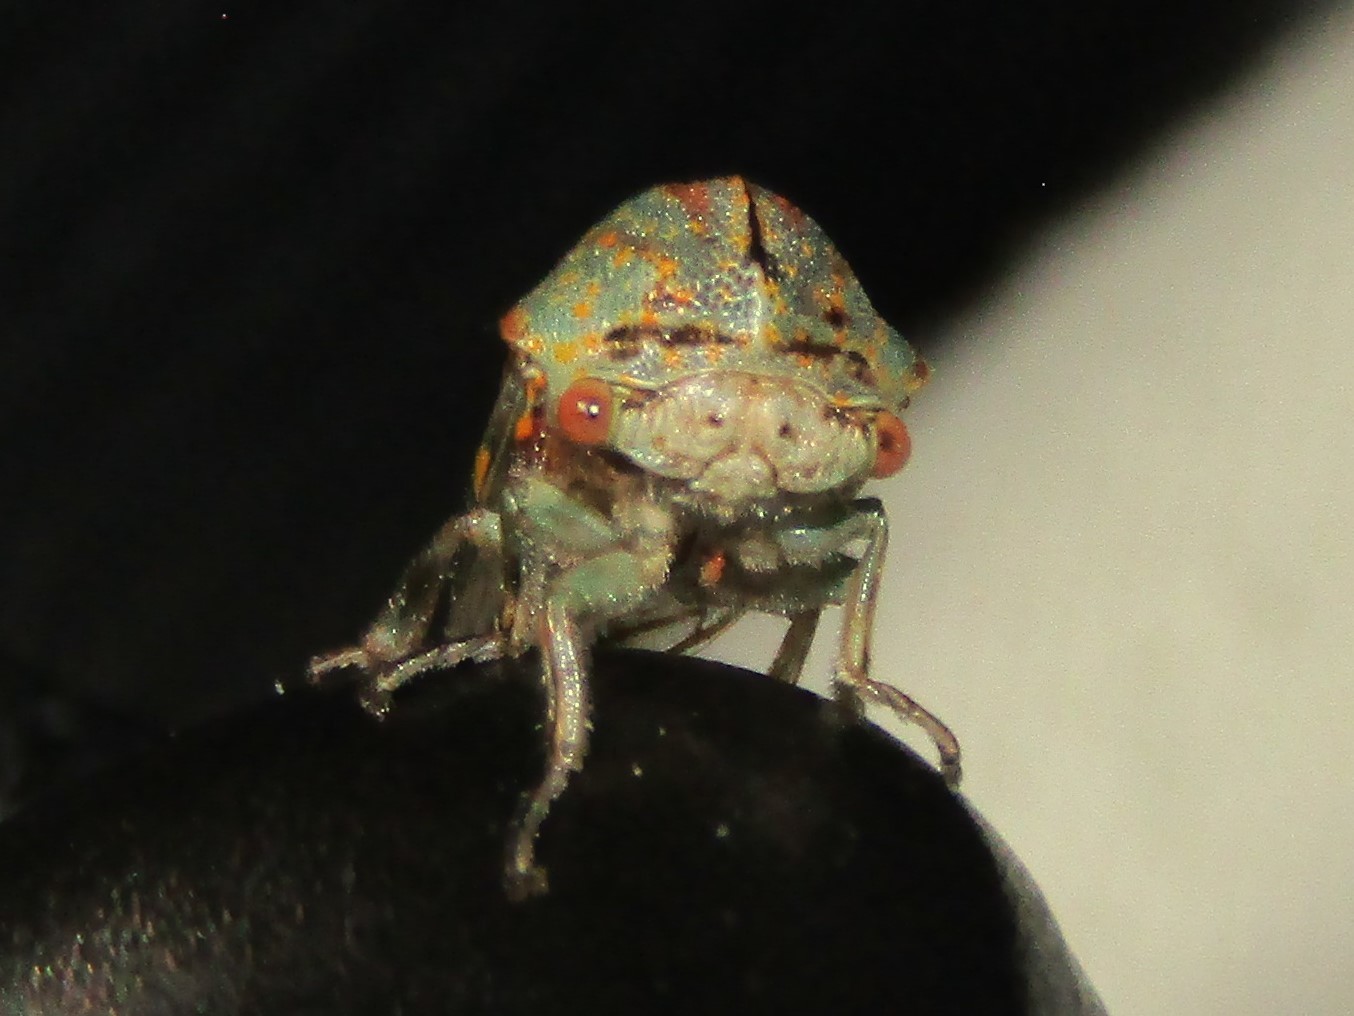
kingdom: Animalia
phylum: Arthropoda
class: Insecta
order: Hemiptera
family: Membracidae
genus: Platycotis
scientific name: Platycotis vittatus
